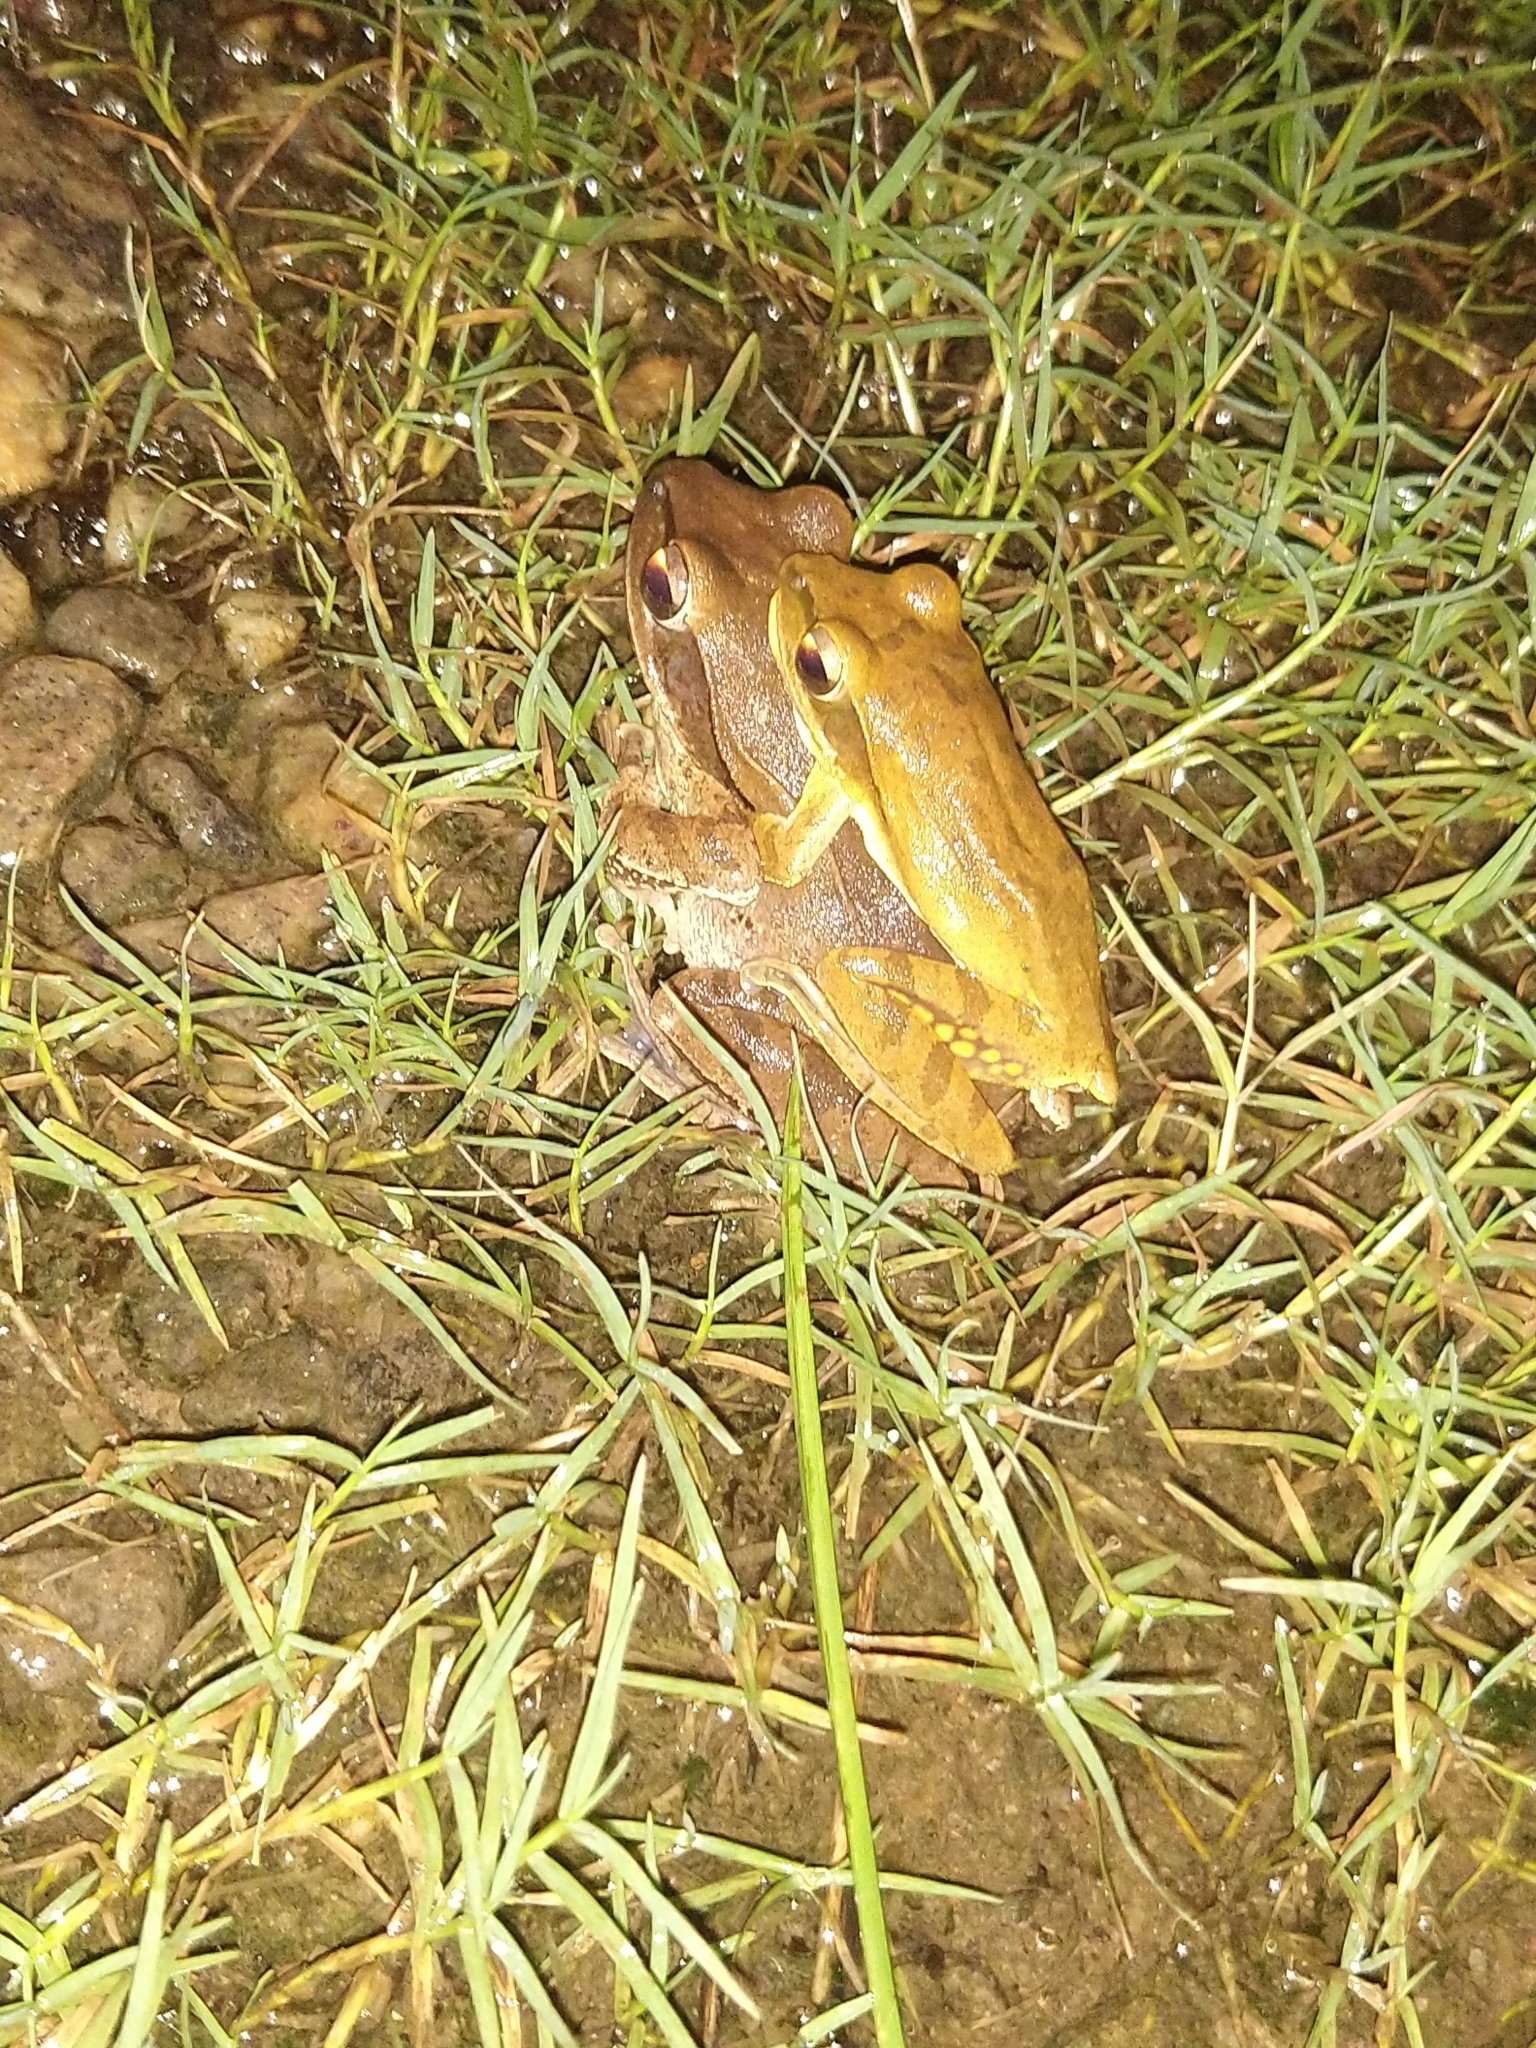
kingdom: Animalia
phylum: Chordata
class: Amphibia
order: Anura
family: Rhacophoridae
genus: Polypedates
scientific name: Polypedates maculatus
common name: Himalayan tree frog
